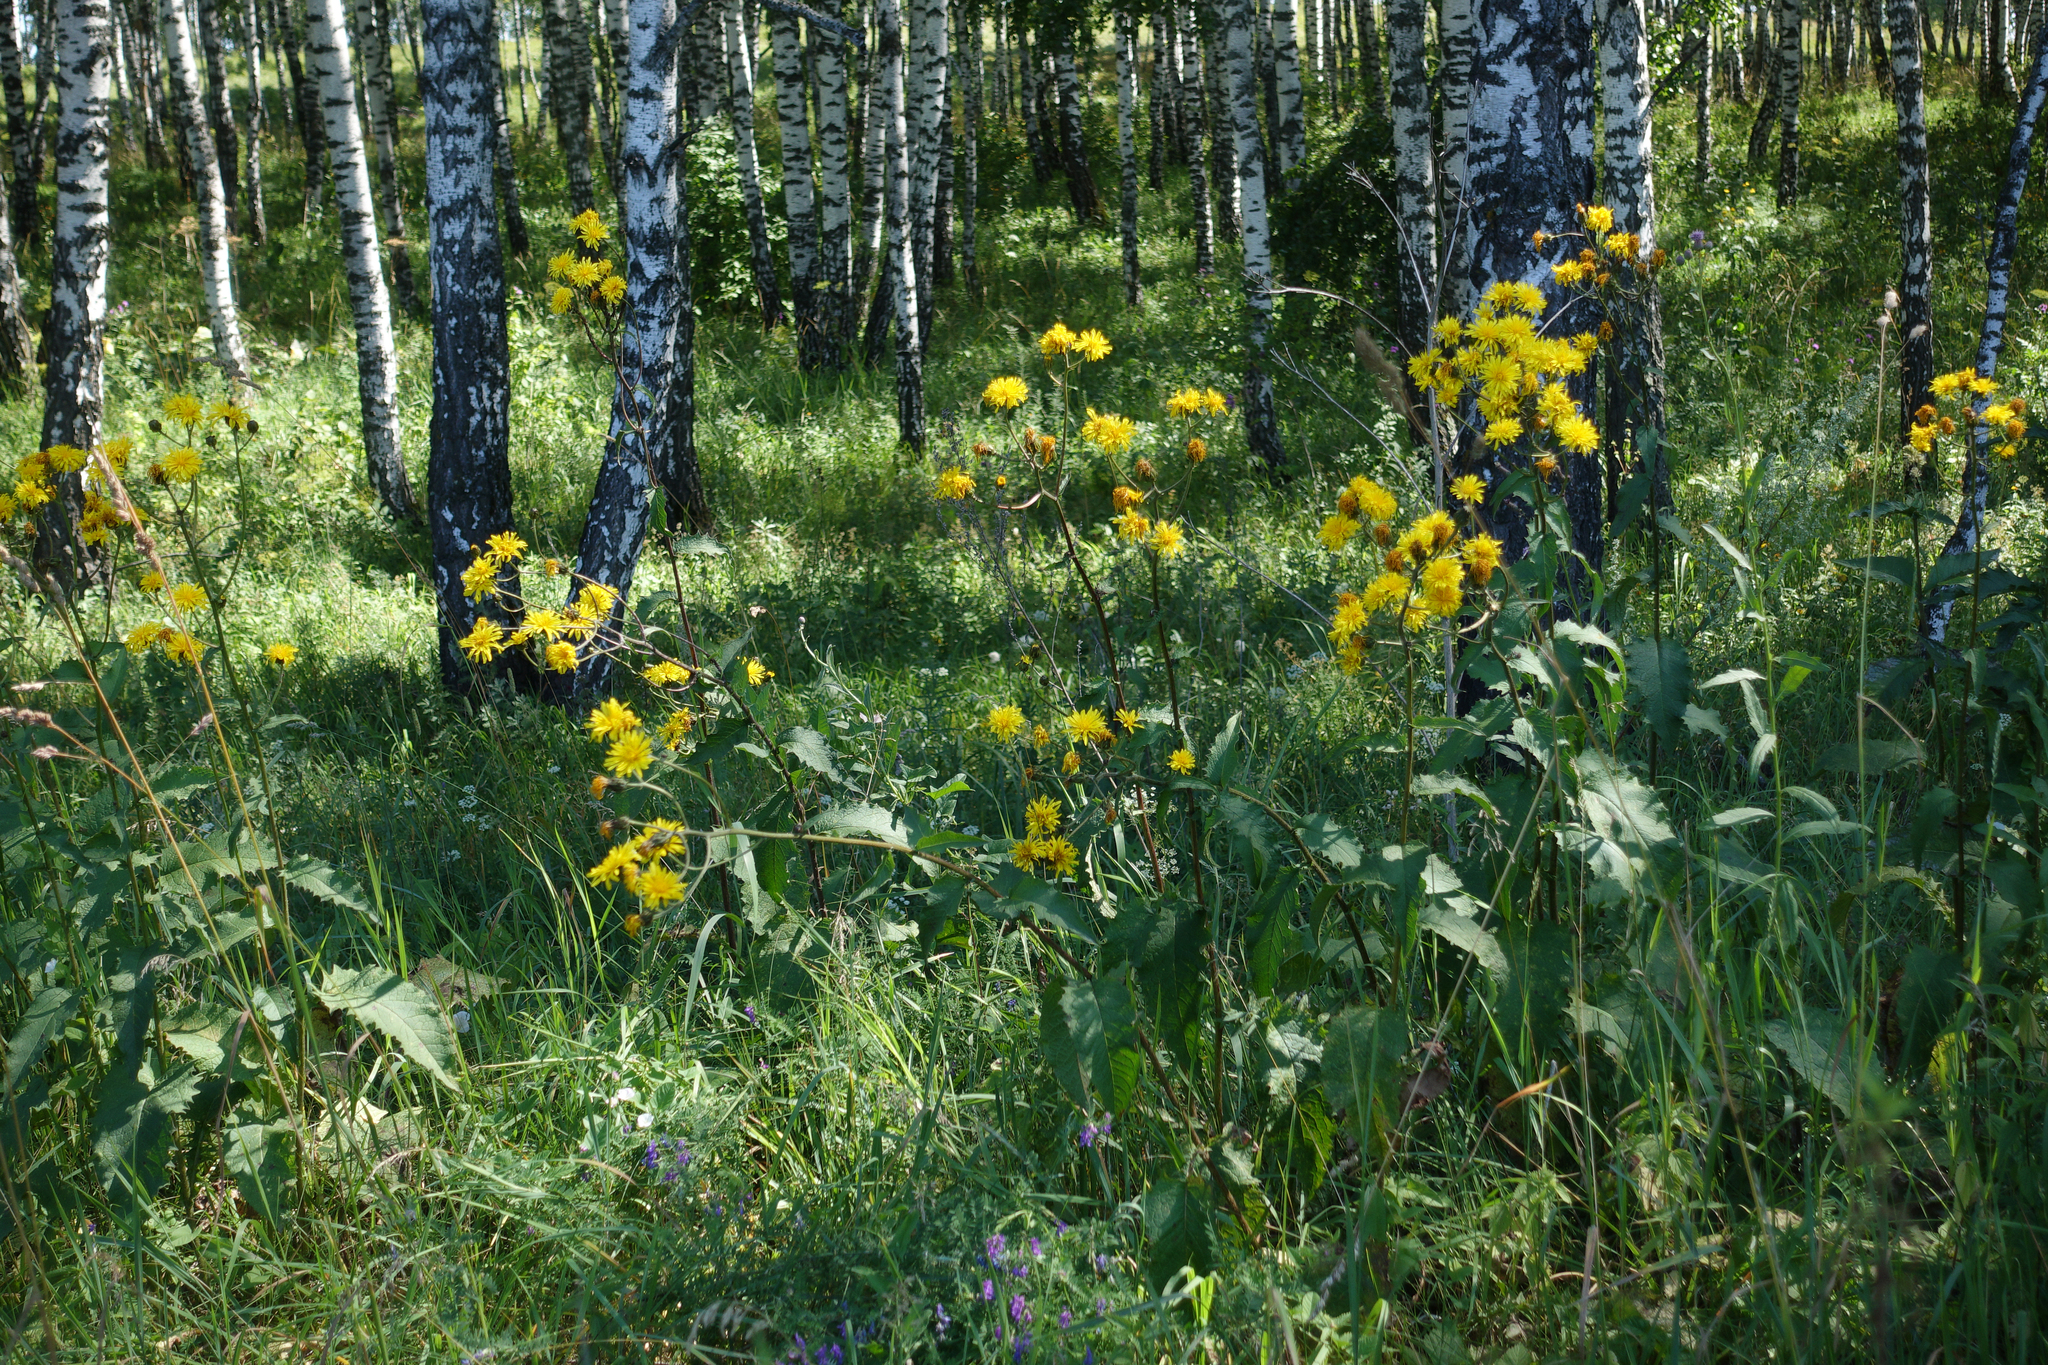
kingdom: Plantae
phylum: Tracheophyta
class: Magnoliopsida
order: Asterales
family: Asteraceae
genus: Crepis
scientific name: Crepis sibirica
